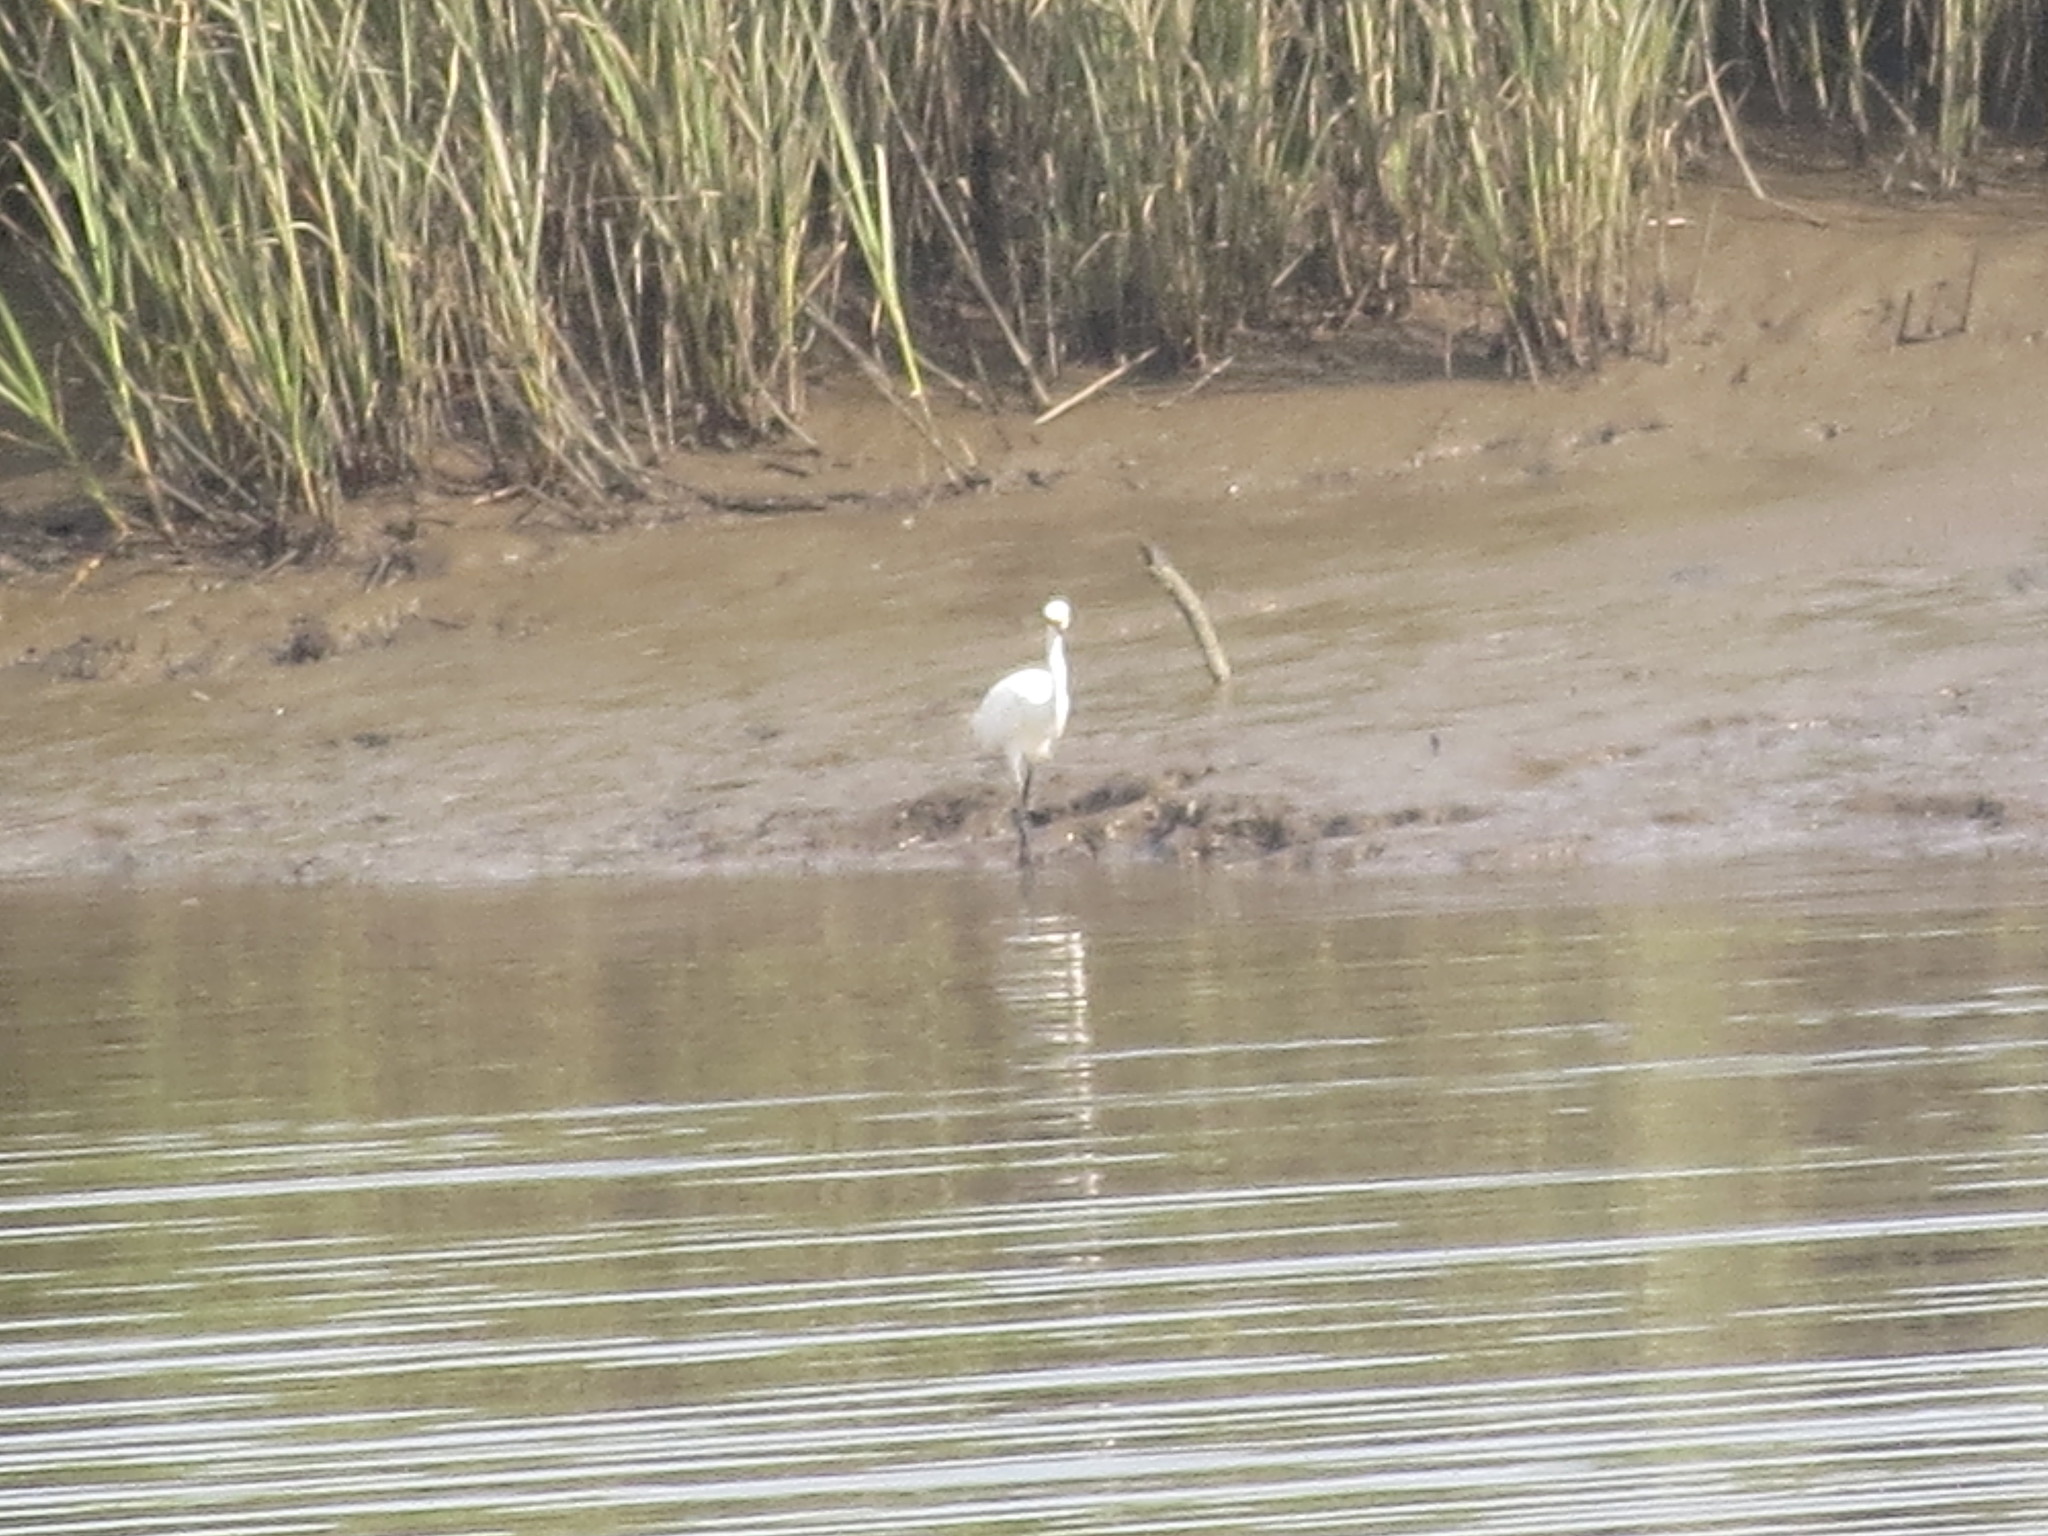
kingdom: Animalia
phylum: Chordata
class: Aves
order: Pelecaniformes
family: Ardeidae
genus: Egretta
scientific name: Egretta thula
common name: Snowy egret
